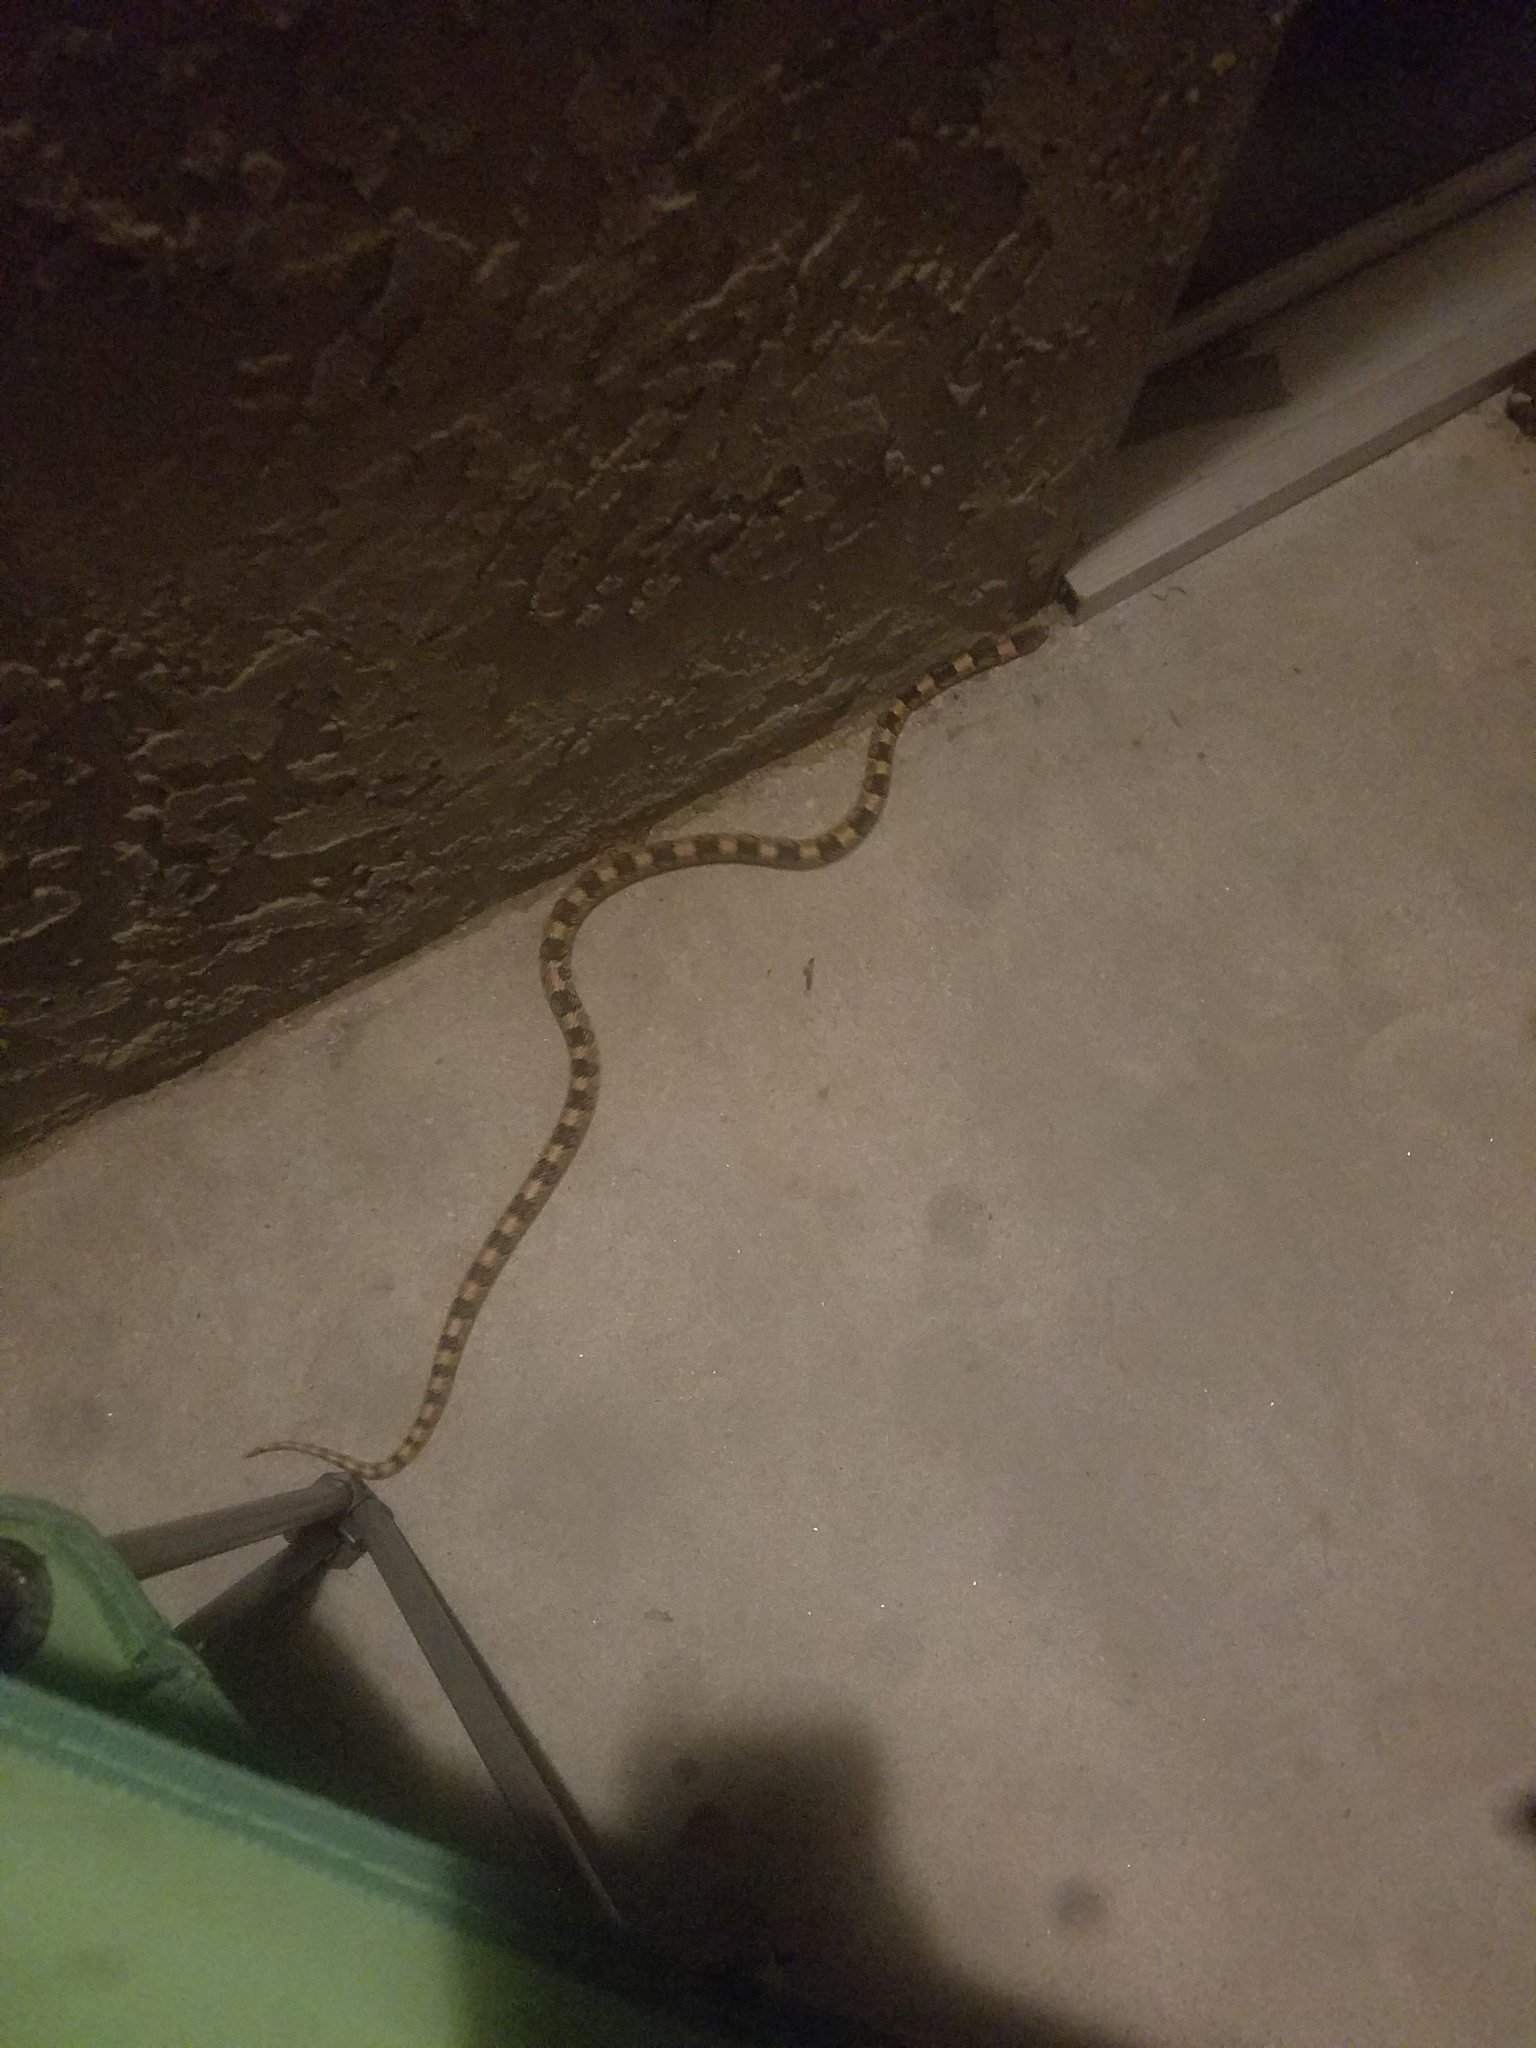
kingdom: Animalia
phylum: Chordata
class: Squamata
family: Colubridae
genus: Rhinocheilus
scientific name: Rhinocheilus lecontei
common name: Longnose snake
